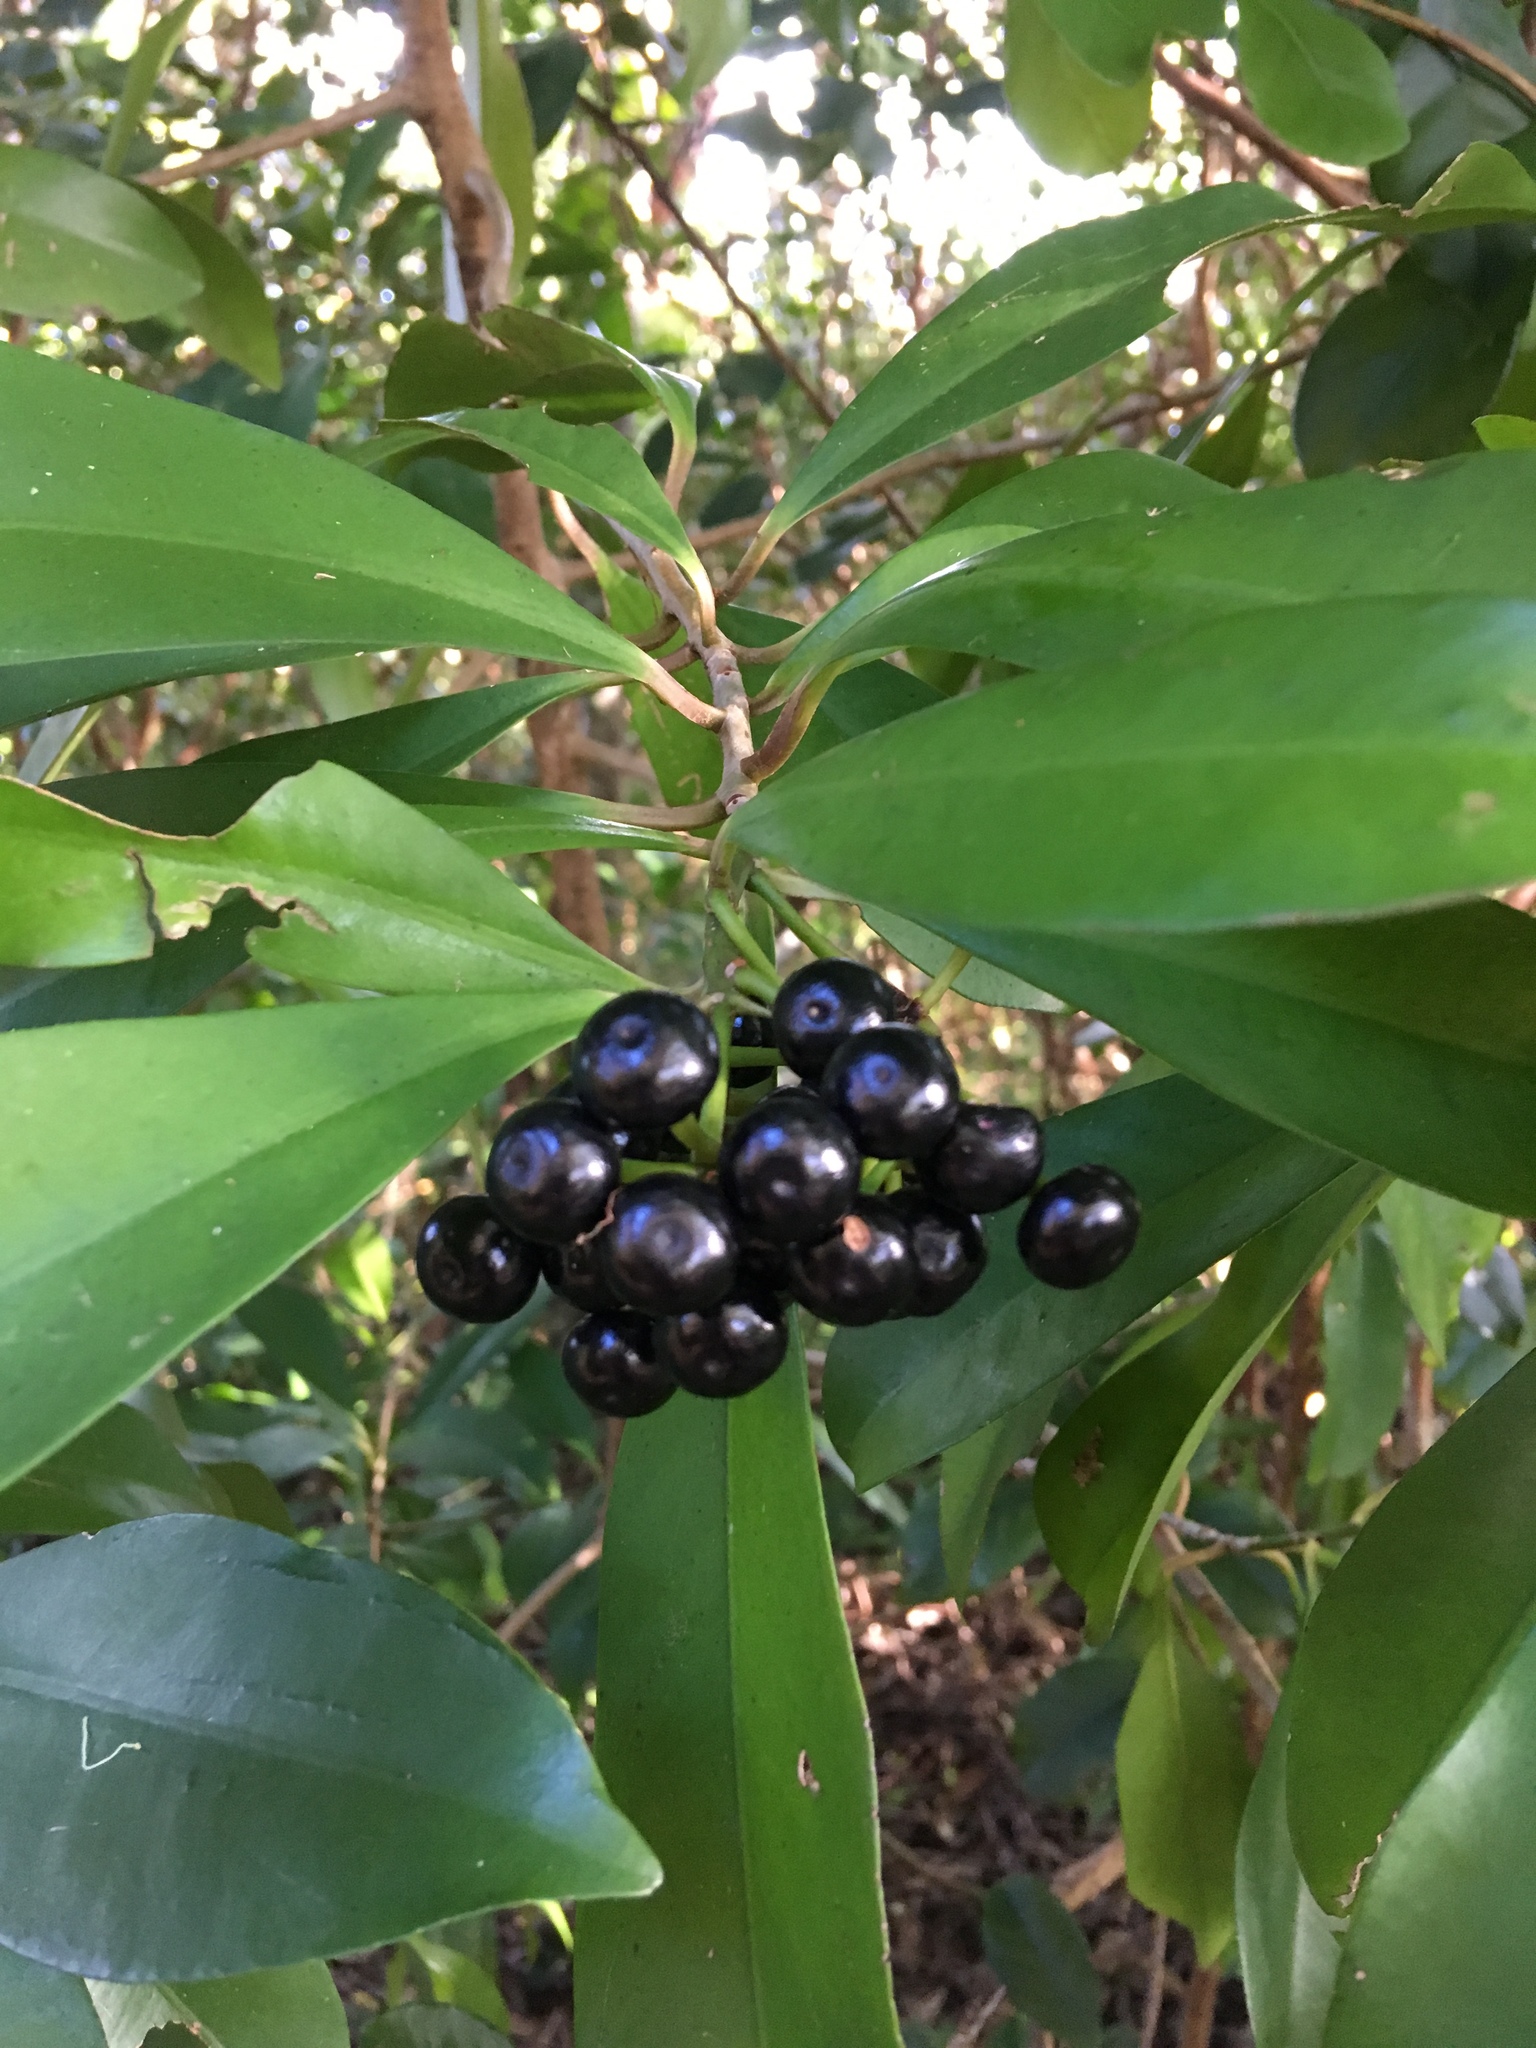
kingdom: Plantae
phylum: Tracheophyta
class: Magnoliopsida
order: Ericales
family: Primulaceae
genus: Ardisia
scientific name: Ardisia elliptica
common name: Shoebutton
